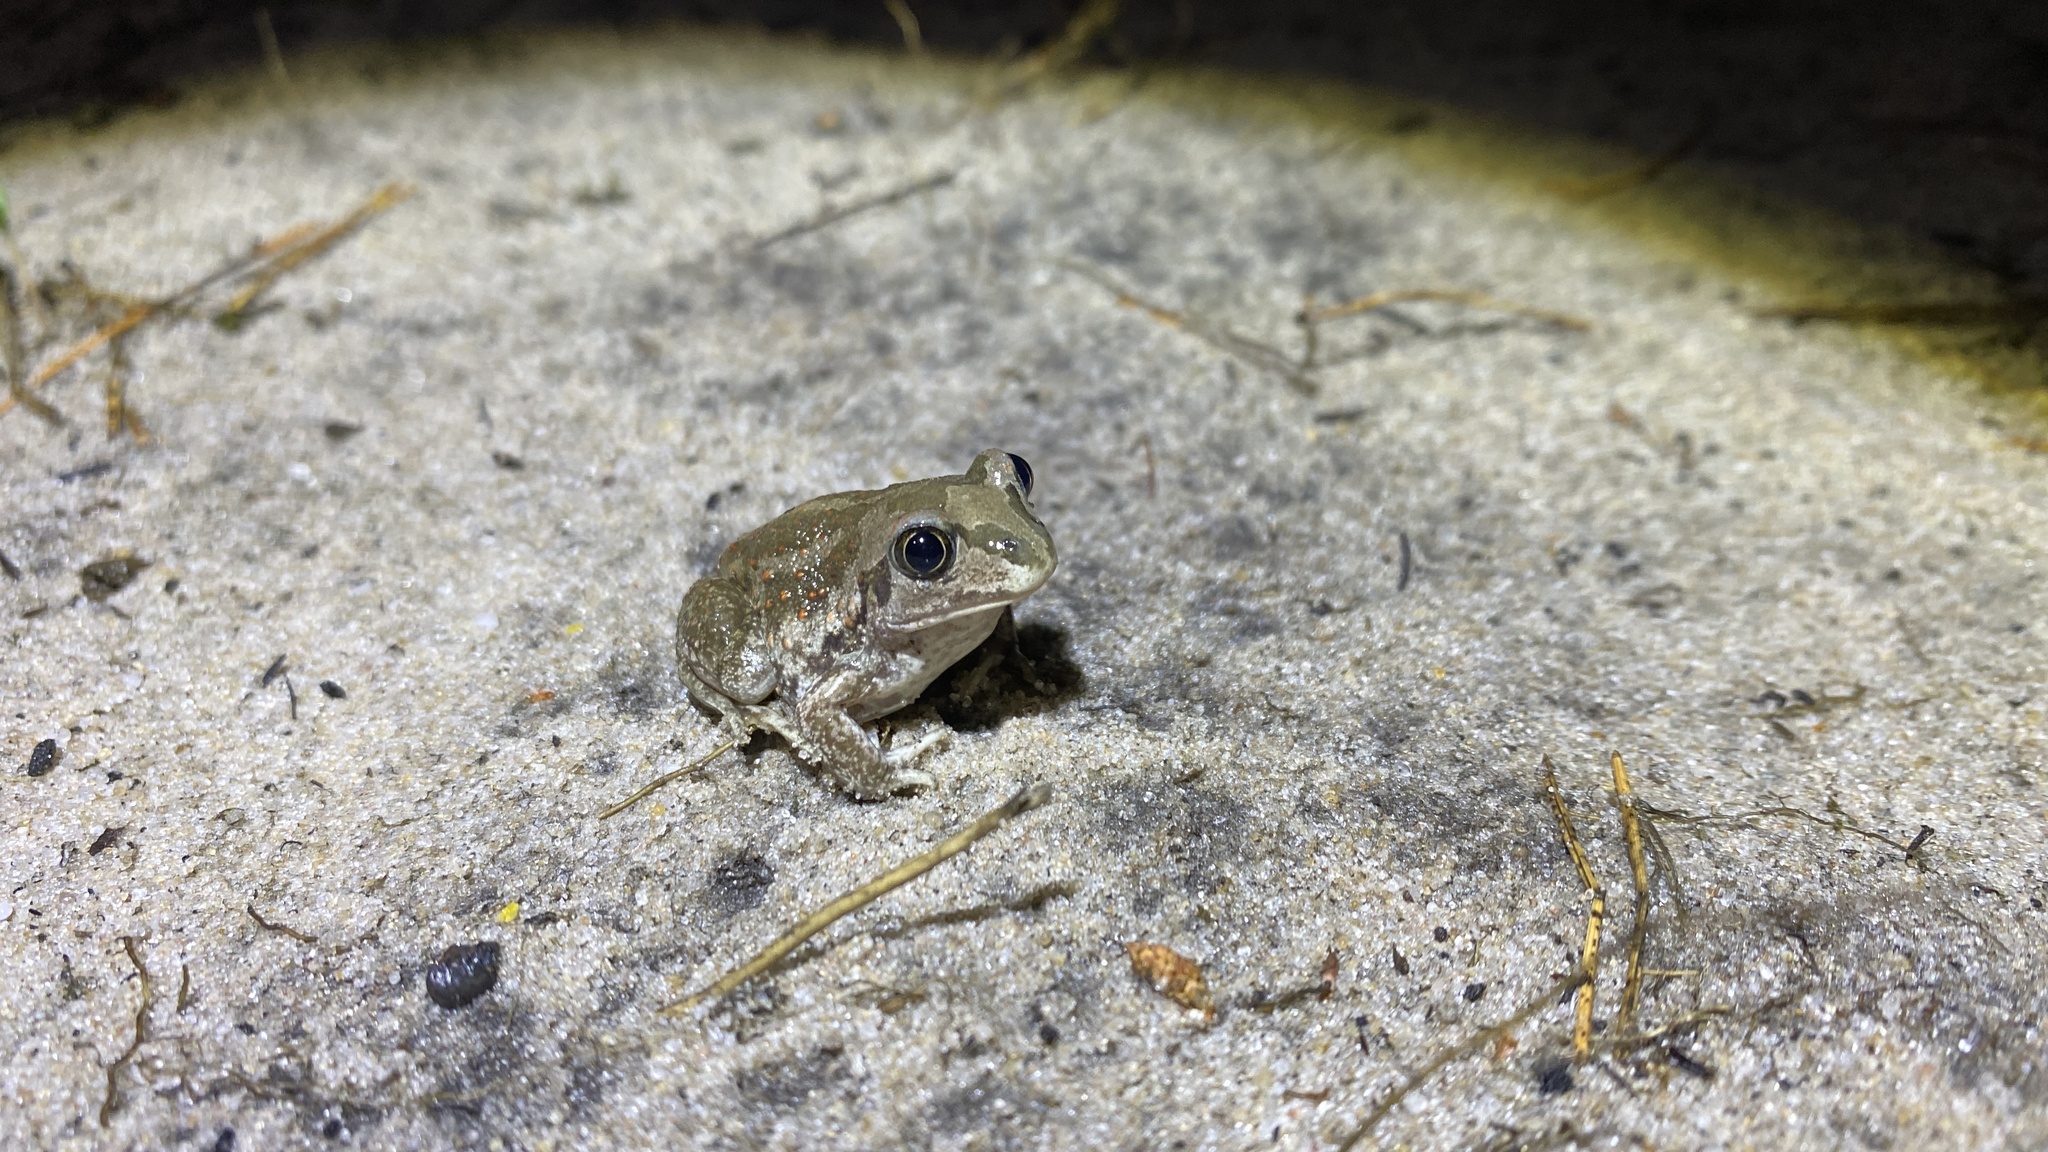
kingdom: Animalia
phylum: Chordata
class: Amphibia
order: Anura
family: Pelobatidae
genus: Pelobates
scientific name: Pelobates vespertinus
